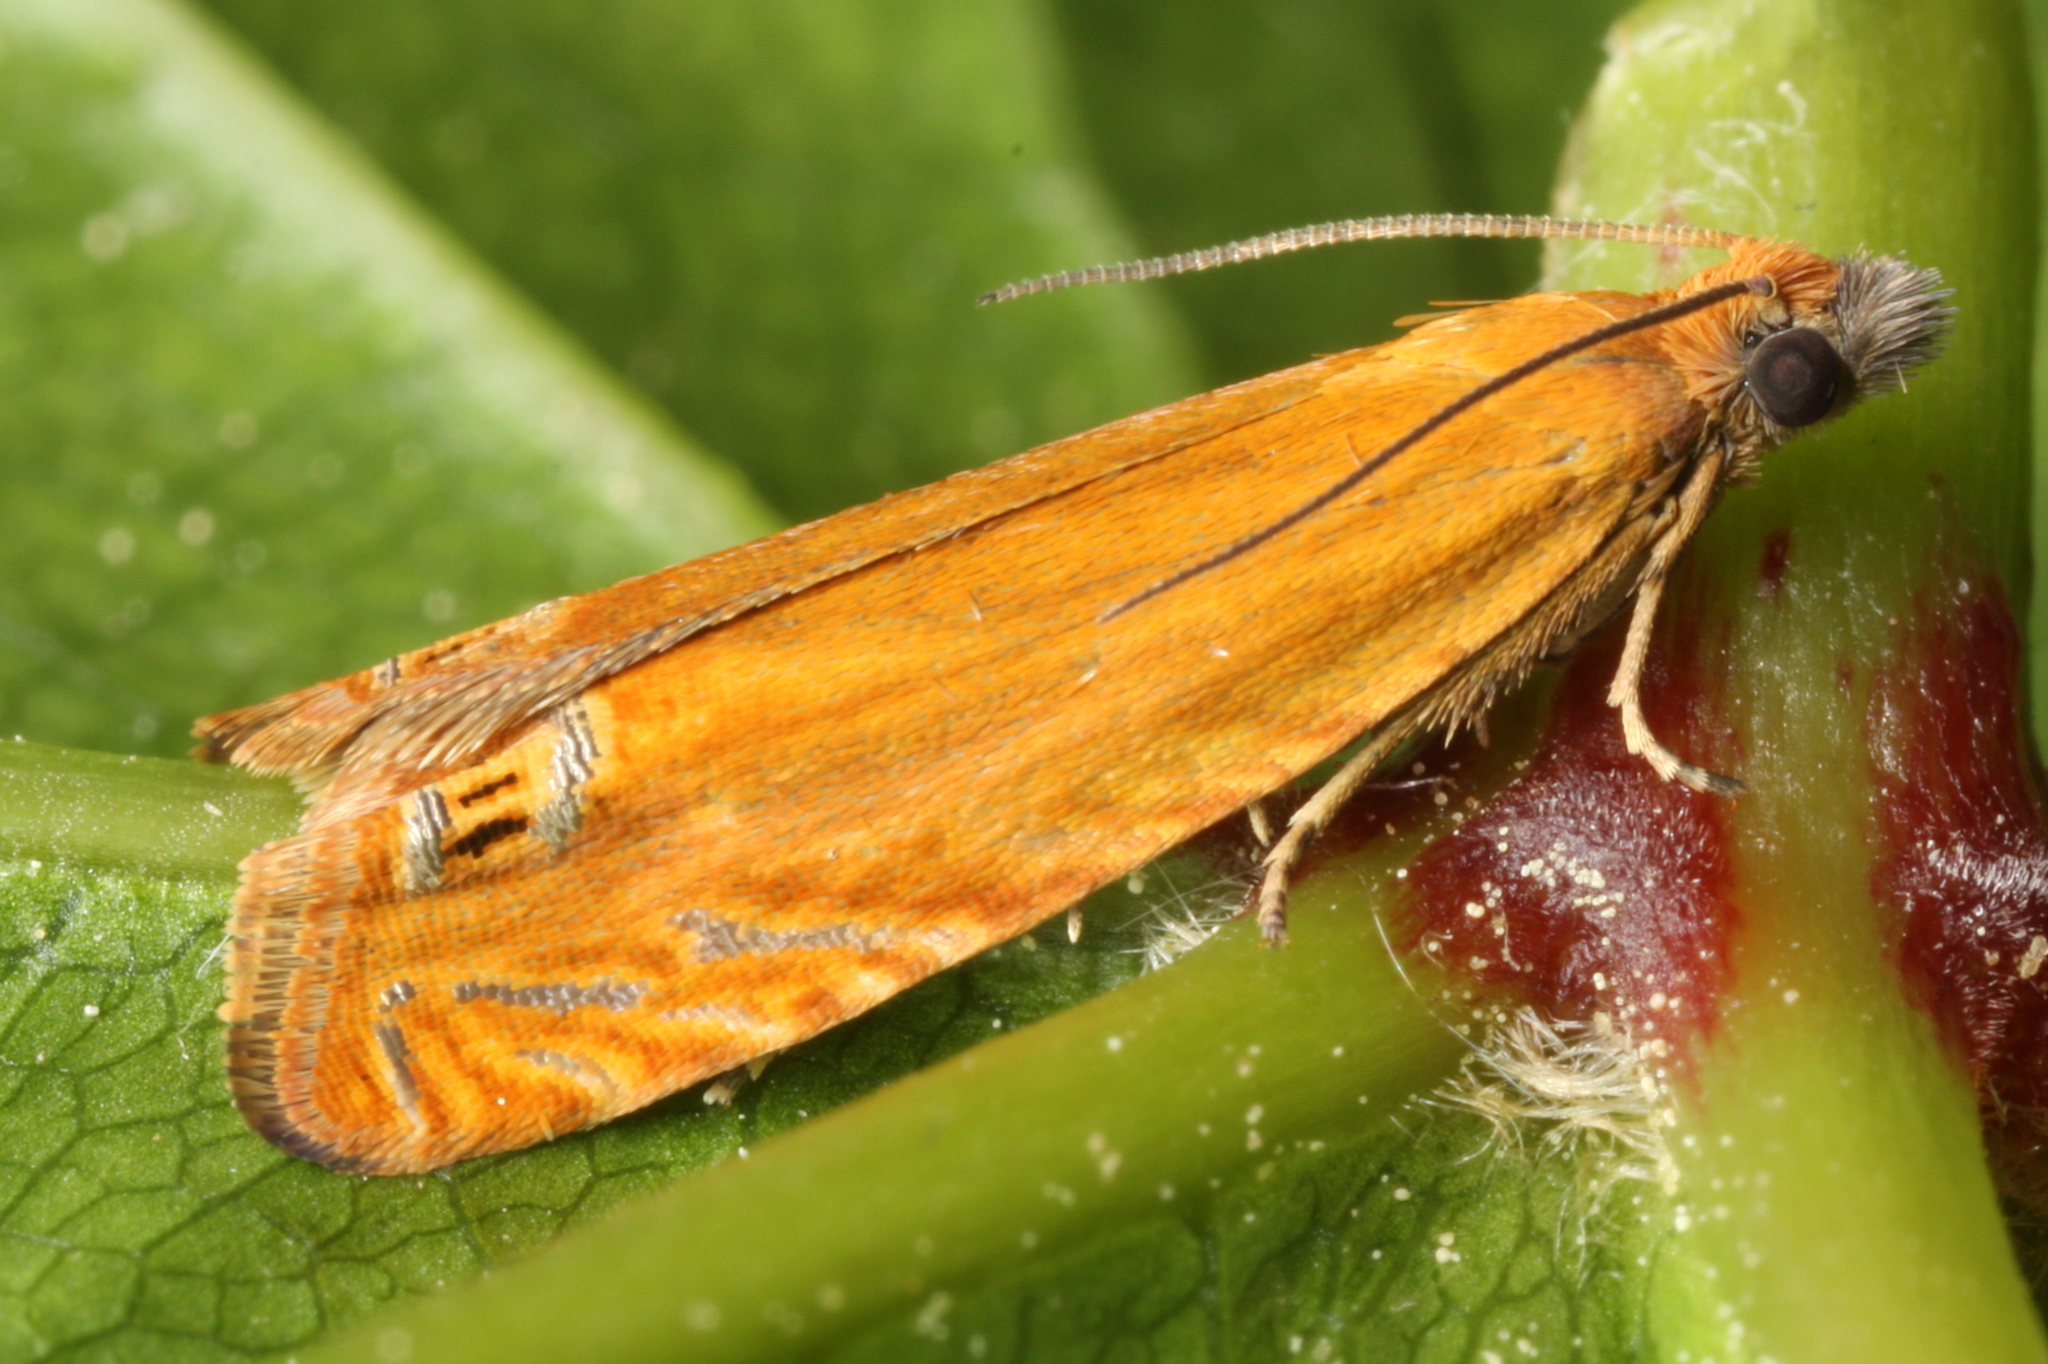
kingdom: Animalia
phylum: Arthropoda
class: Insecta
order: Lepidoptera
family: Tortricidae
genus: Lathronympha
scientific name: Lathronympha strigana
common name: Red piercer
